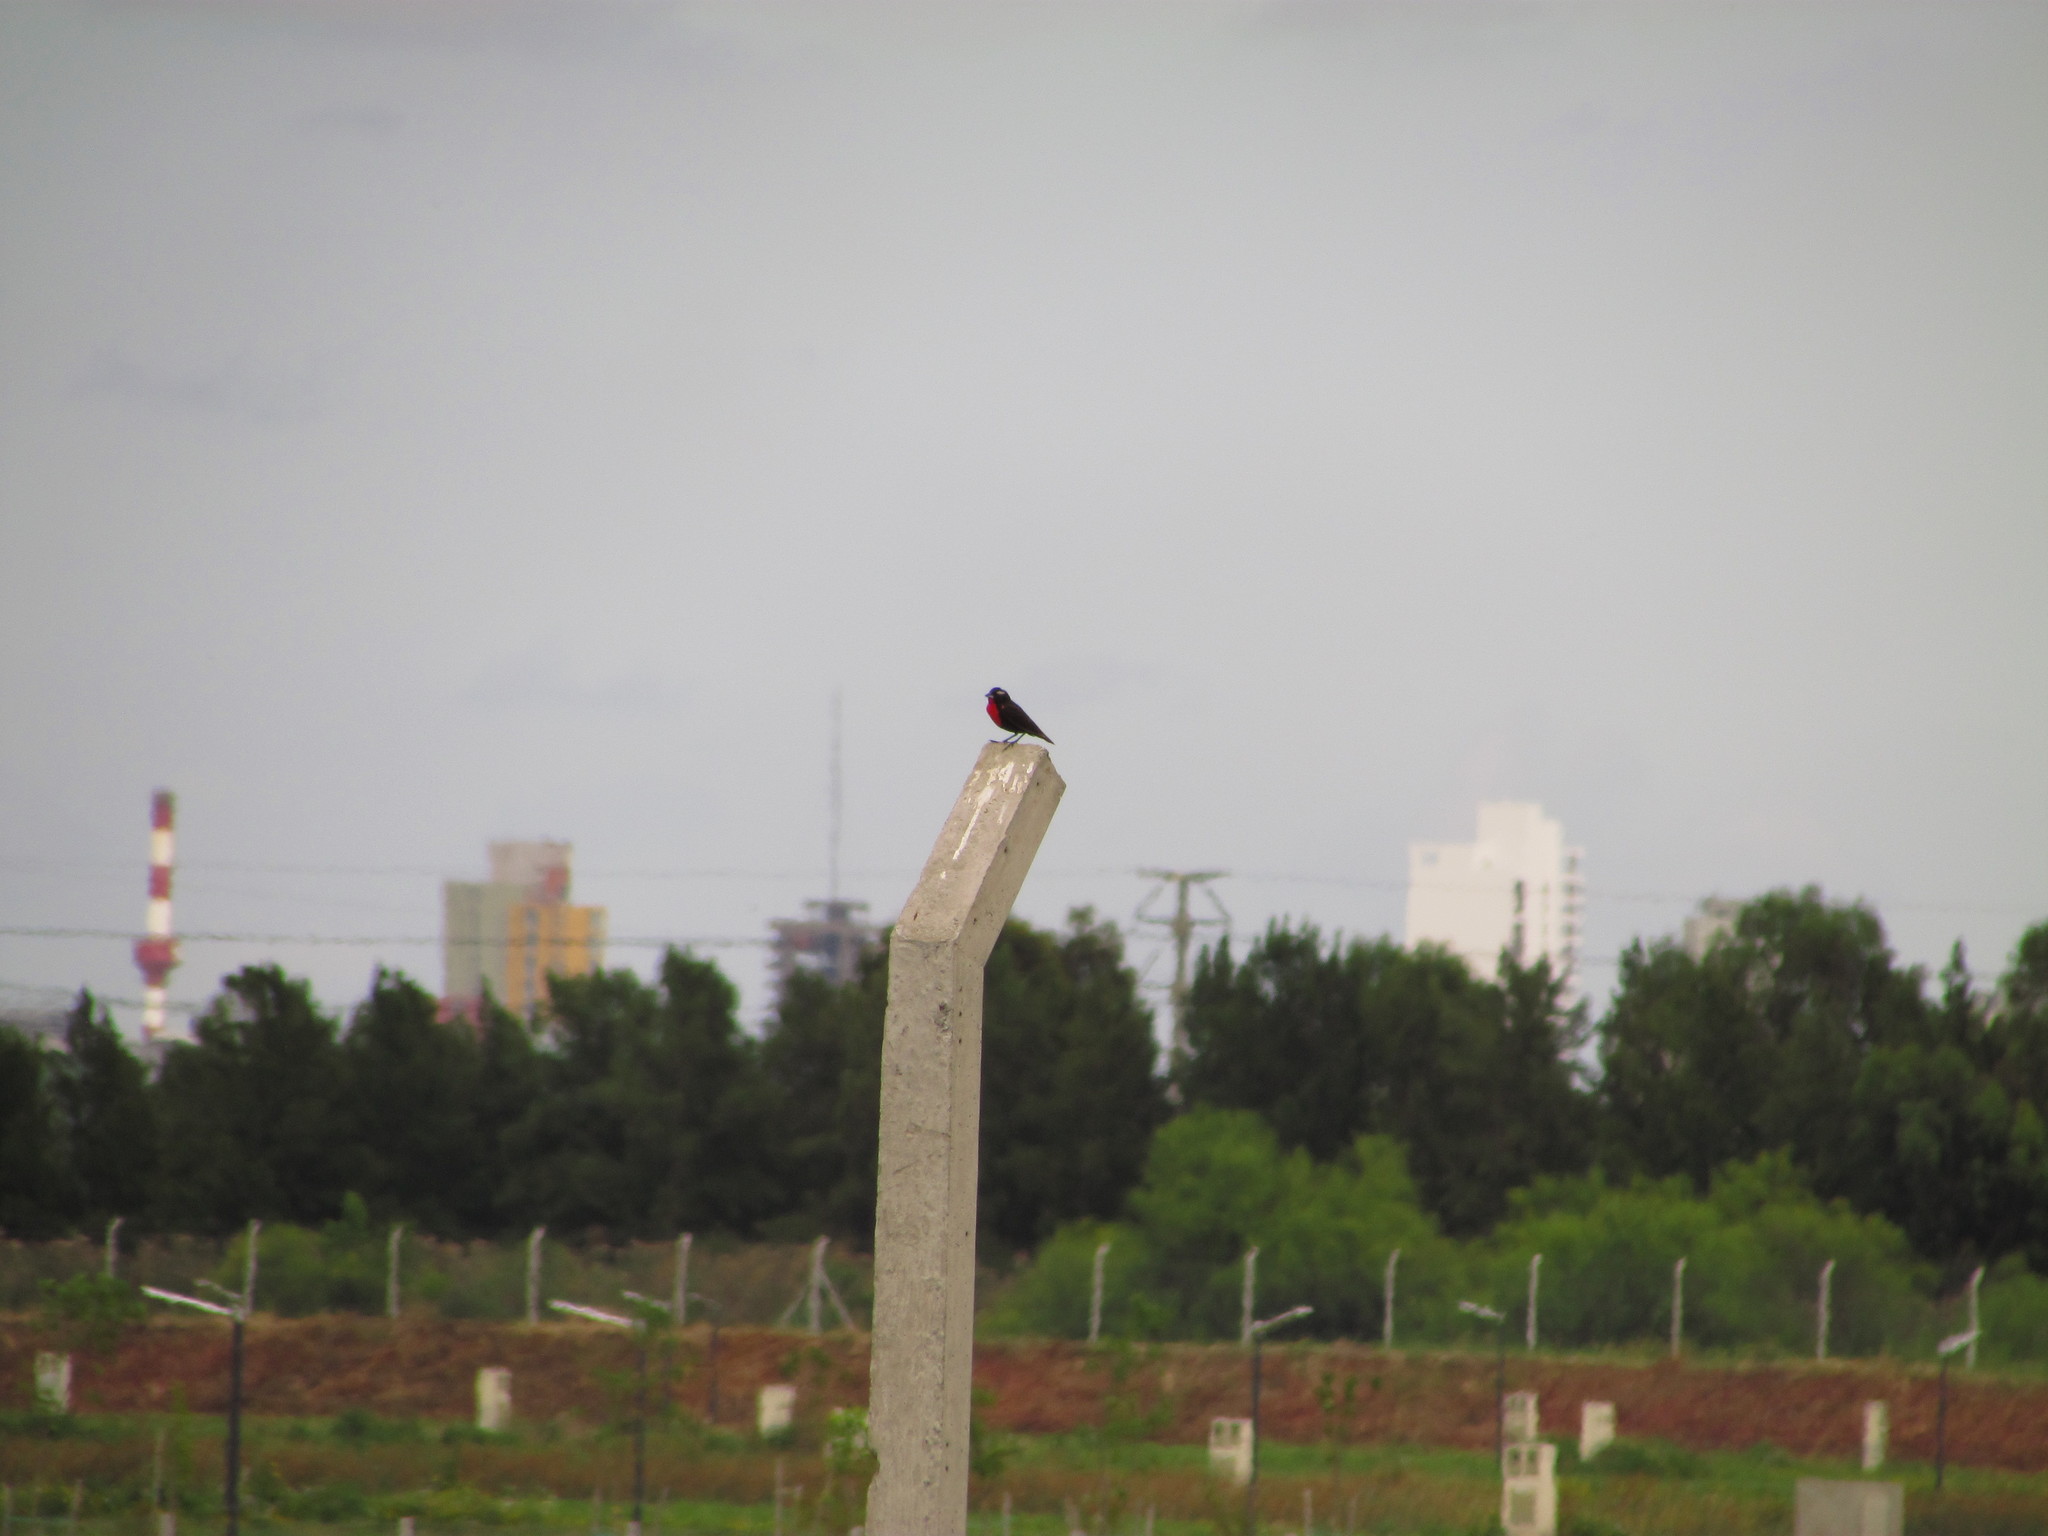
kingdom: Animalia
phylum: Chordata
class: Aves
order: Passeriformes
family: Icteridae
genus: Sturnella
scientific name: Sturnella superciliaris
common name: White-browed blackbird
